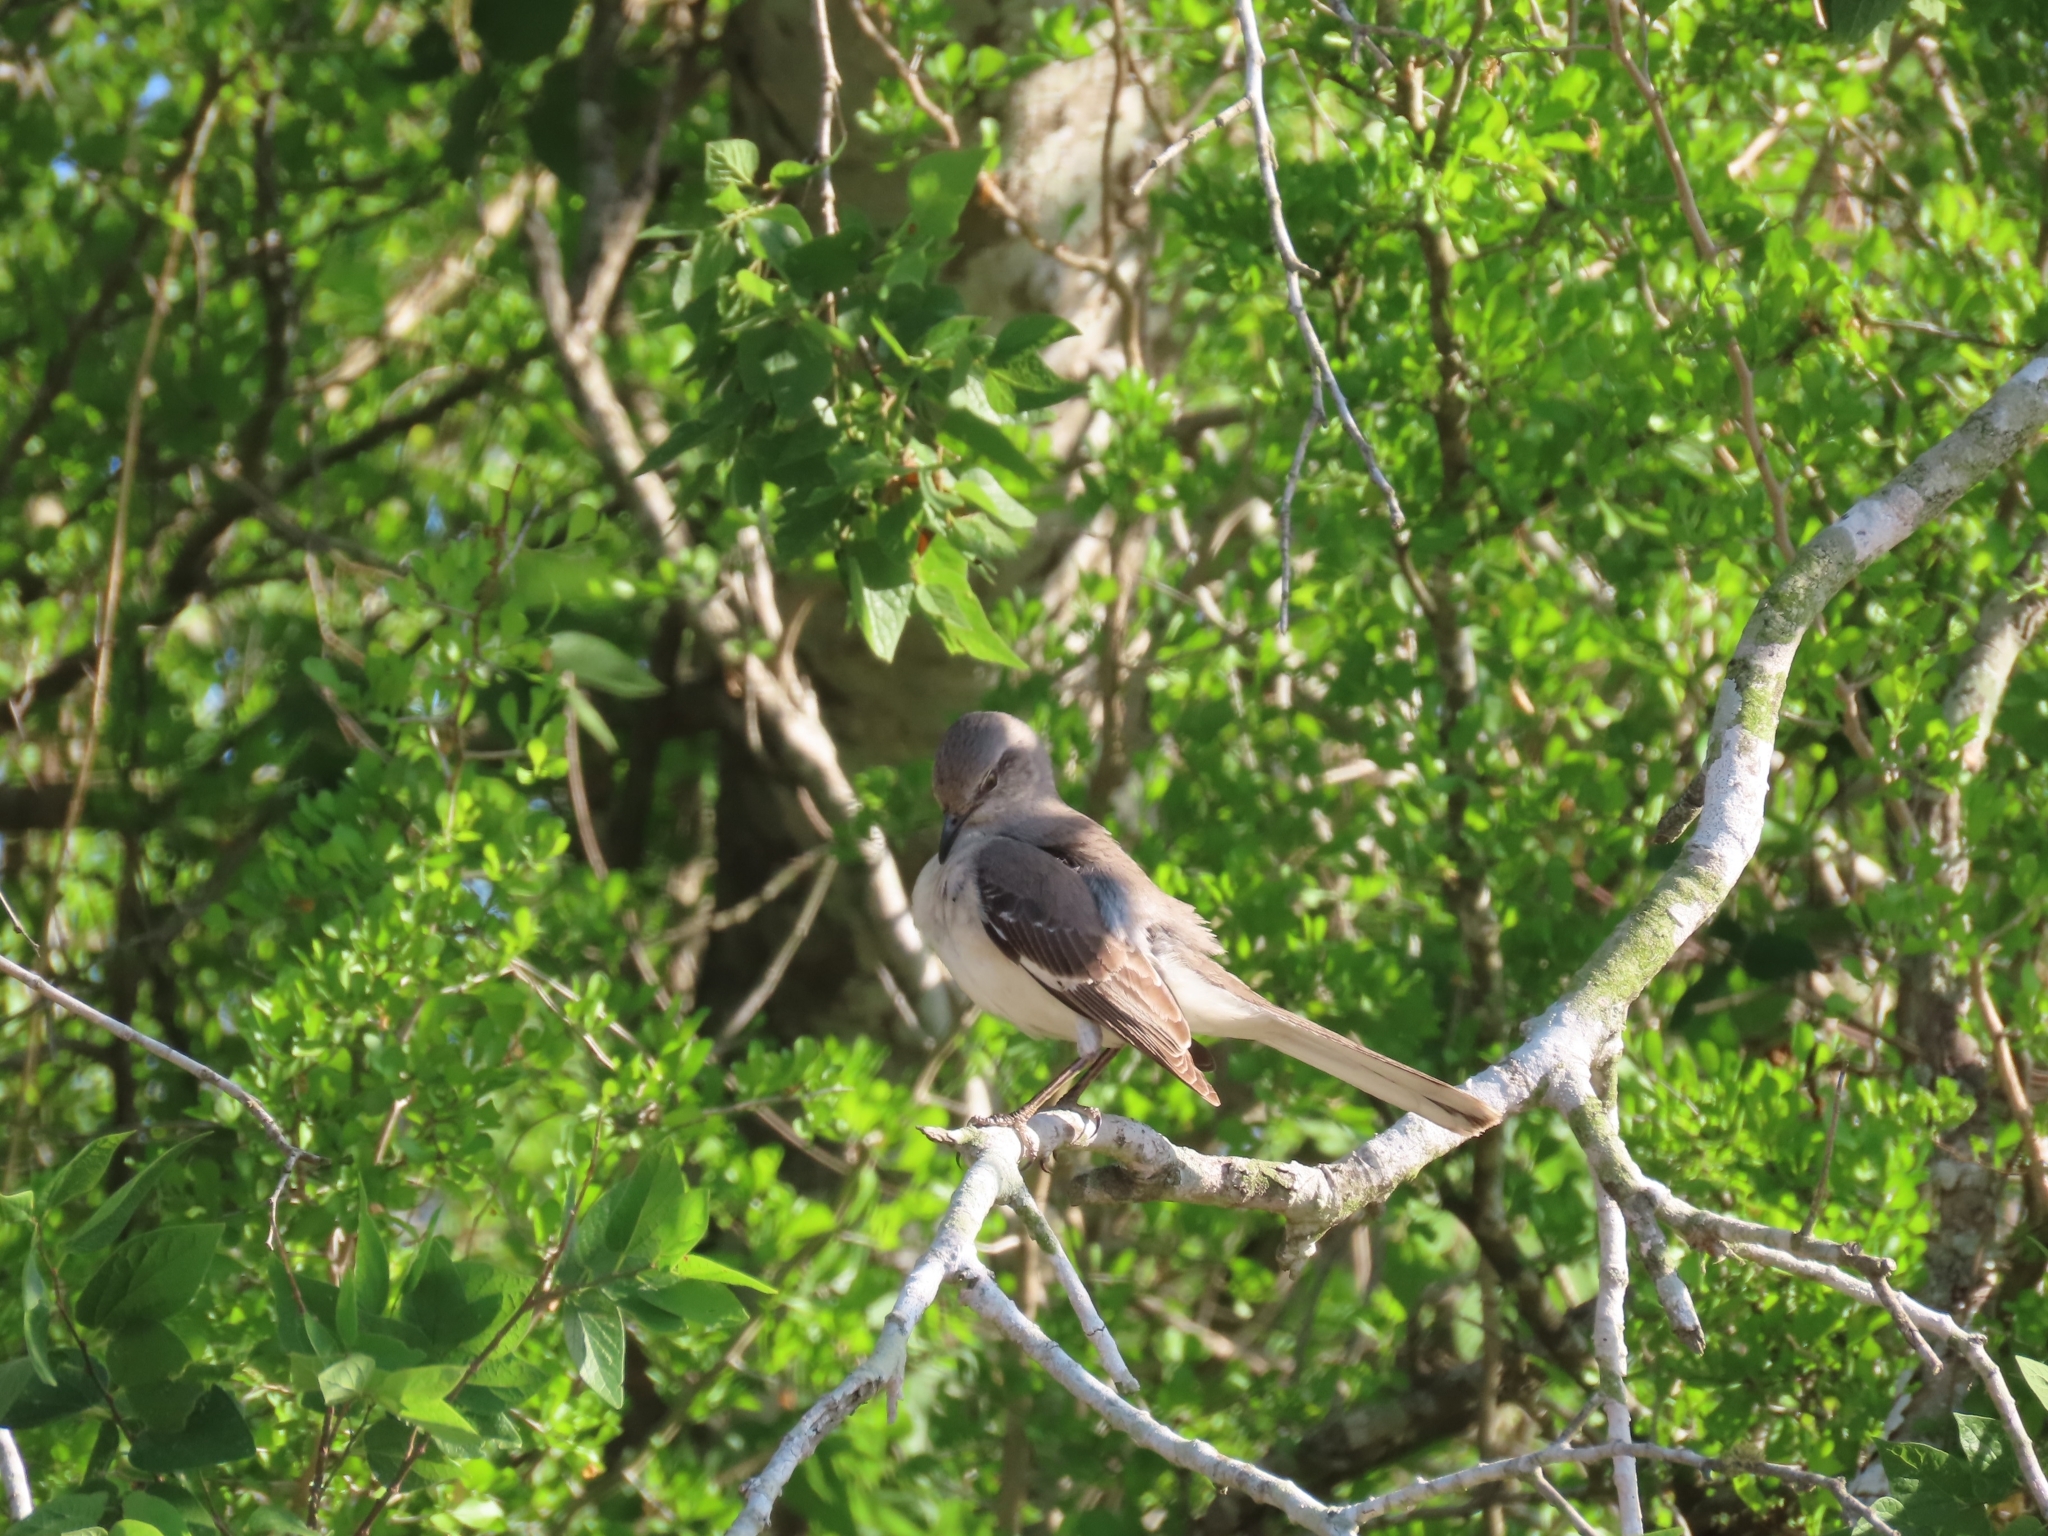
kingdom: Animalia
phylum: Chordata
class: Aves
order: Passeriformes
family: Mimidae
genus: Mimus
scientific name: Mimus polyglottos
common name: Northern mockingbird
